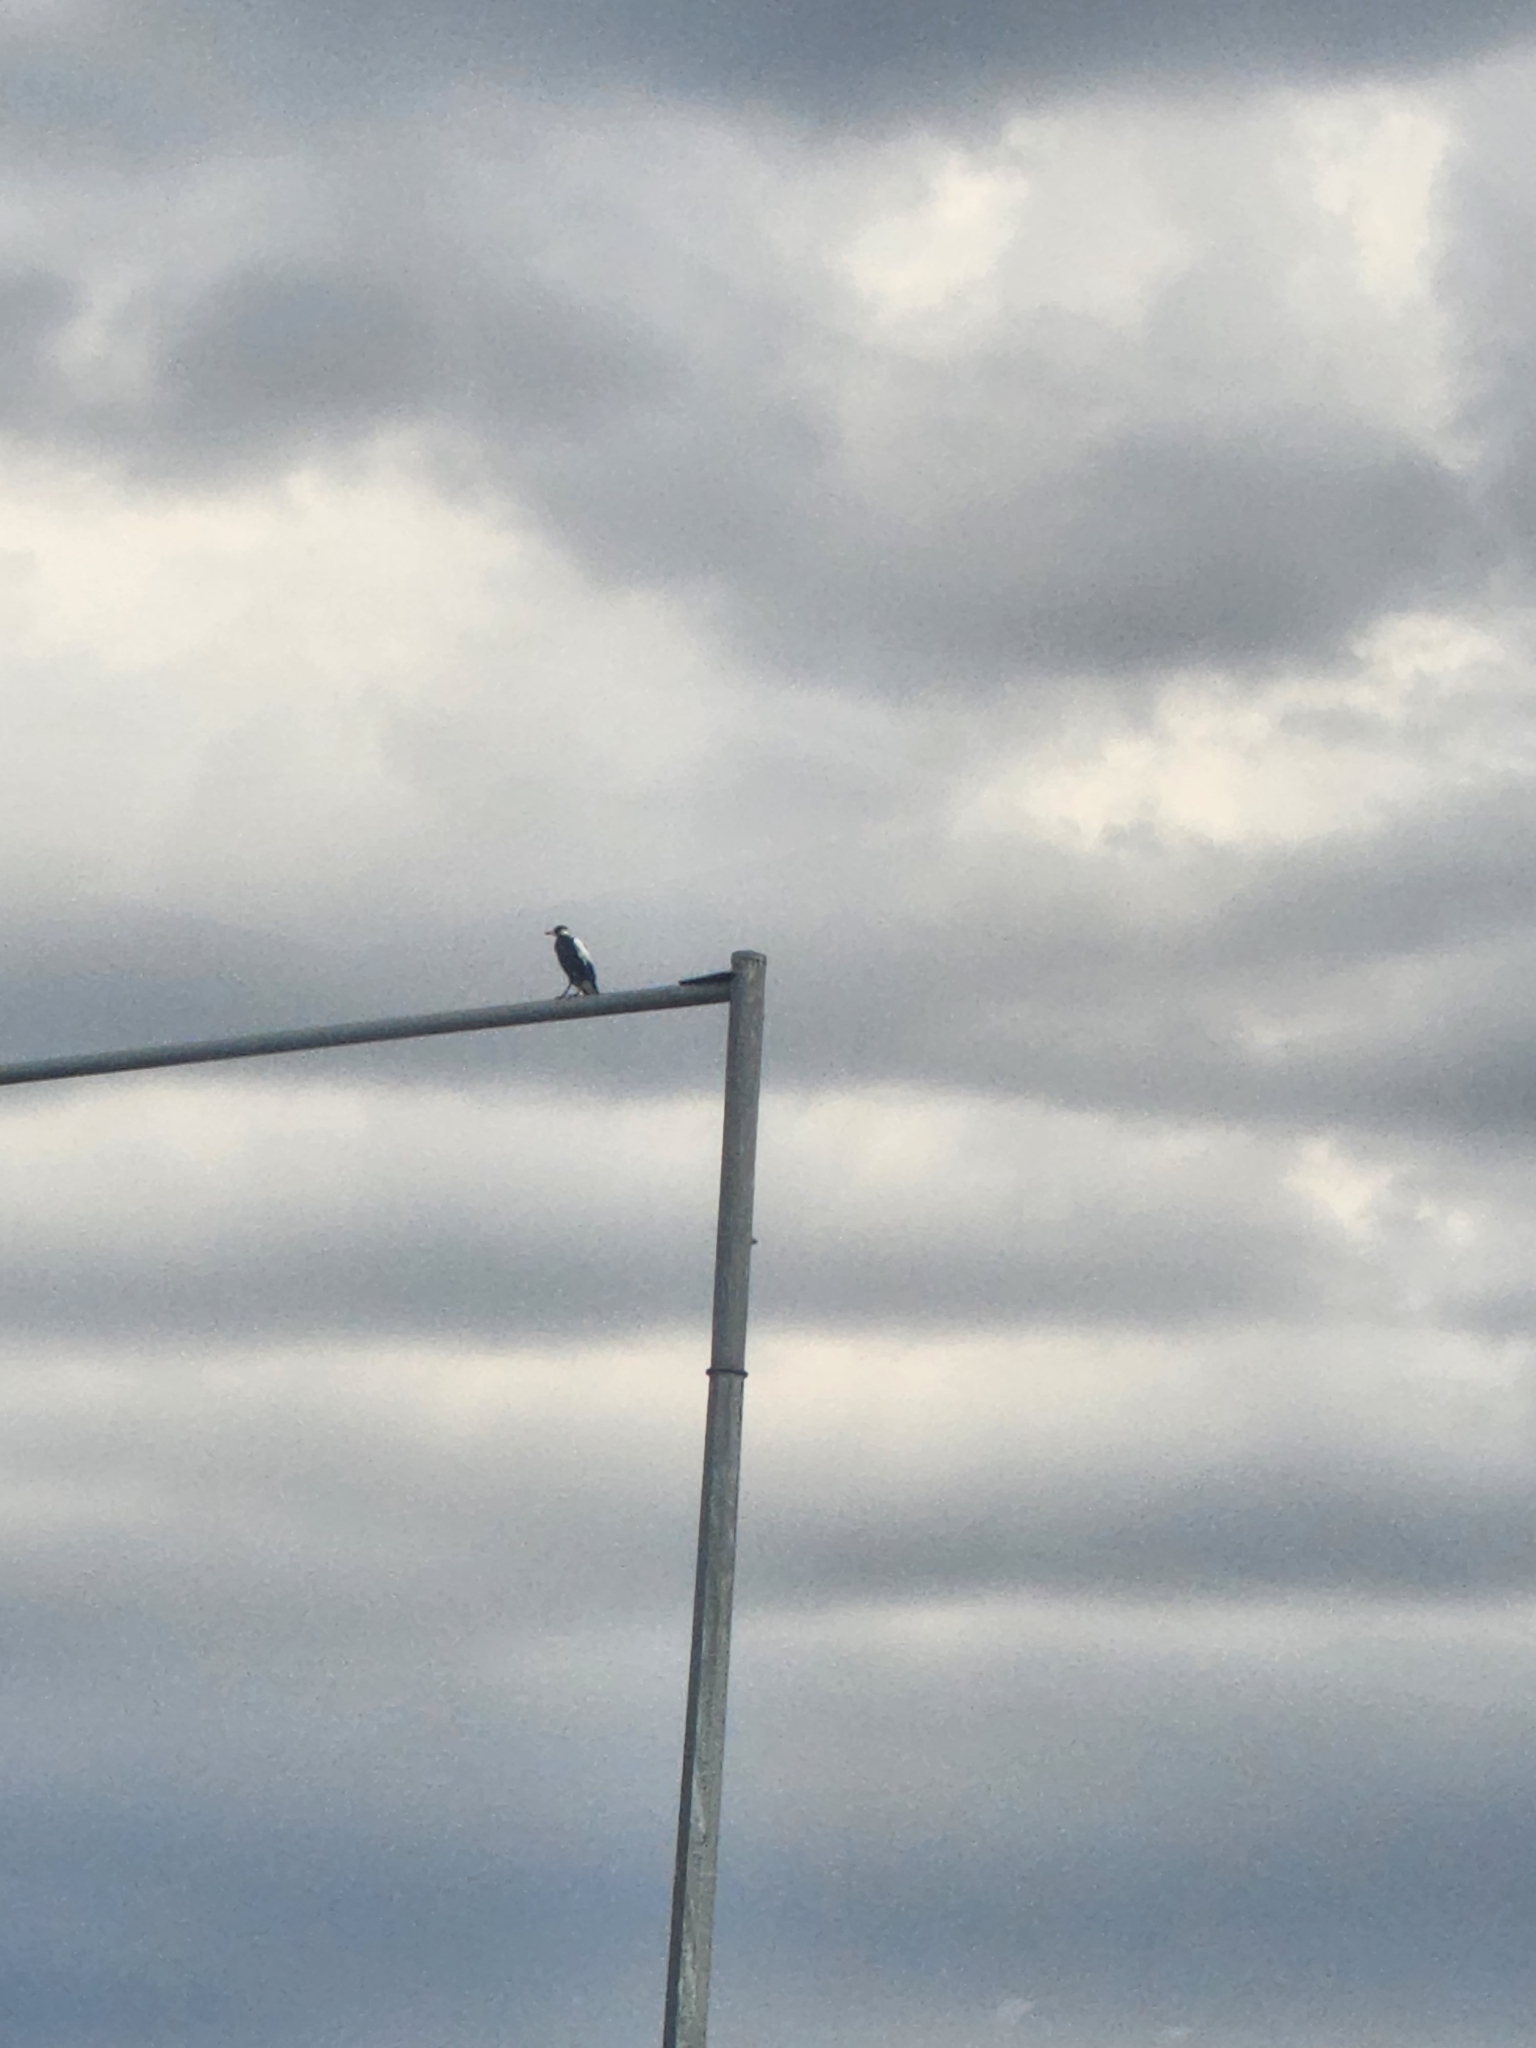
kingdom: Animalia
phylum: Chordata
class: Aves
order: Passeriformes
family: Cracticidae
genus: Gymnorhina
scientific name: Gymnorhina tibicen
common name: Australian magpie
